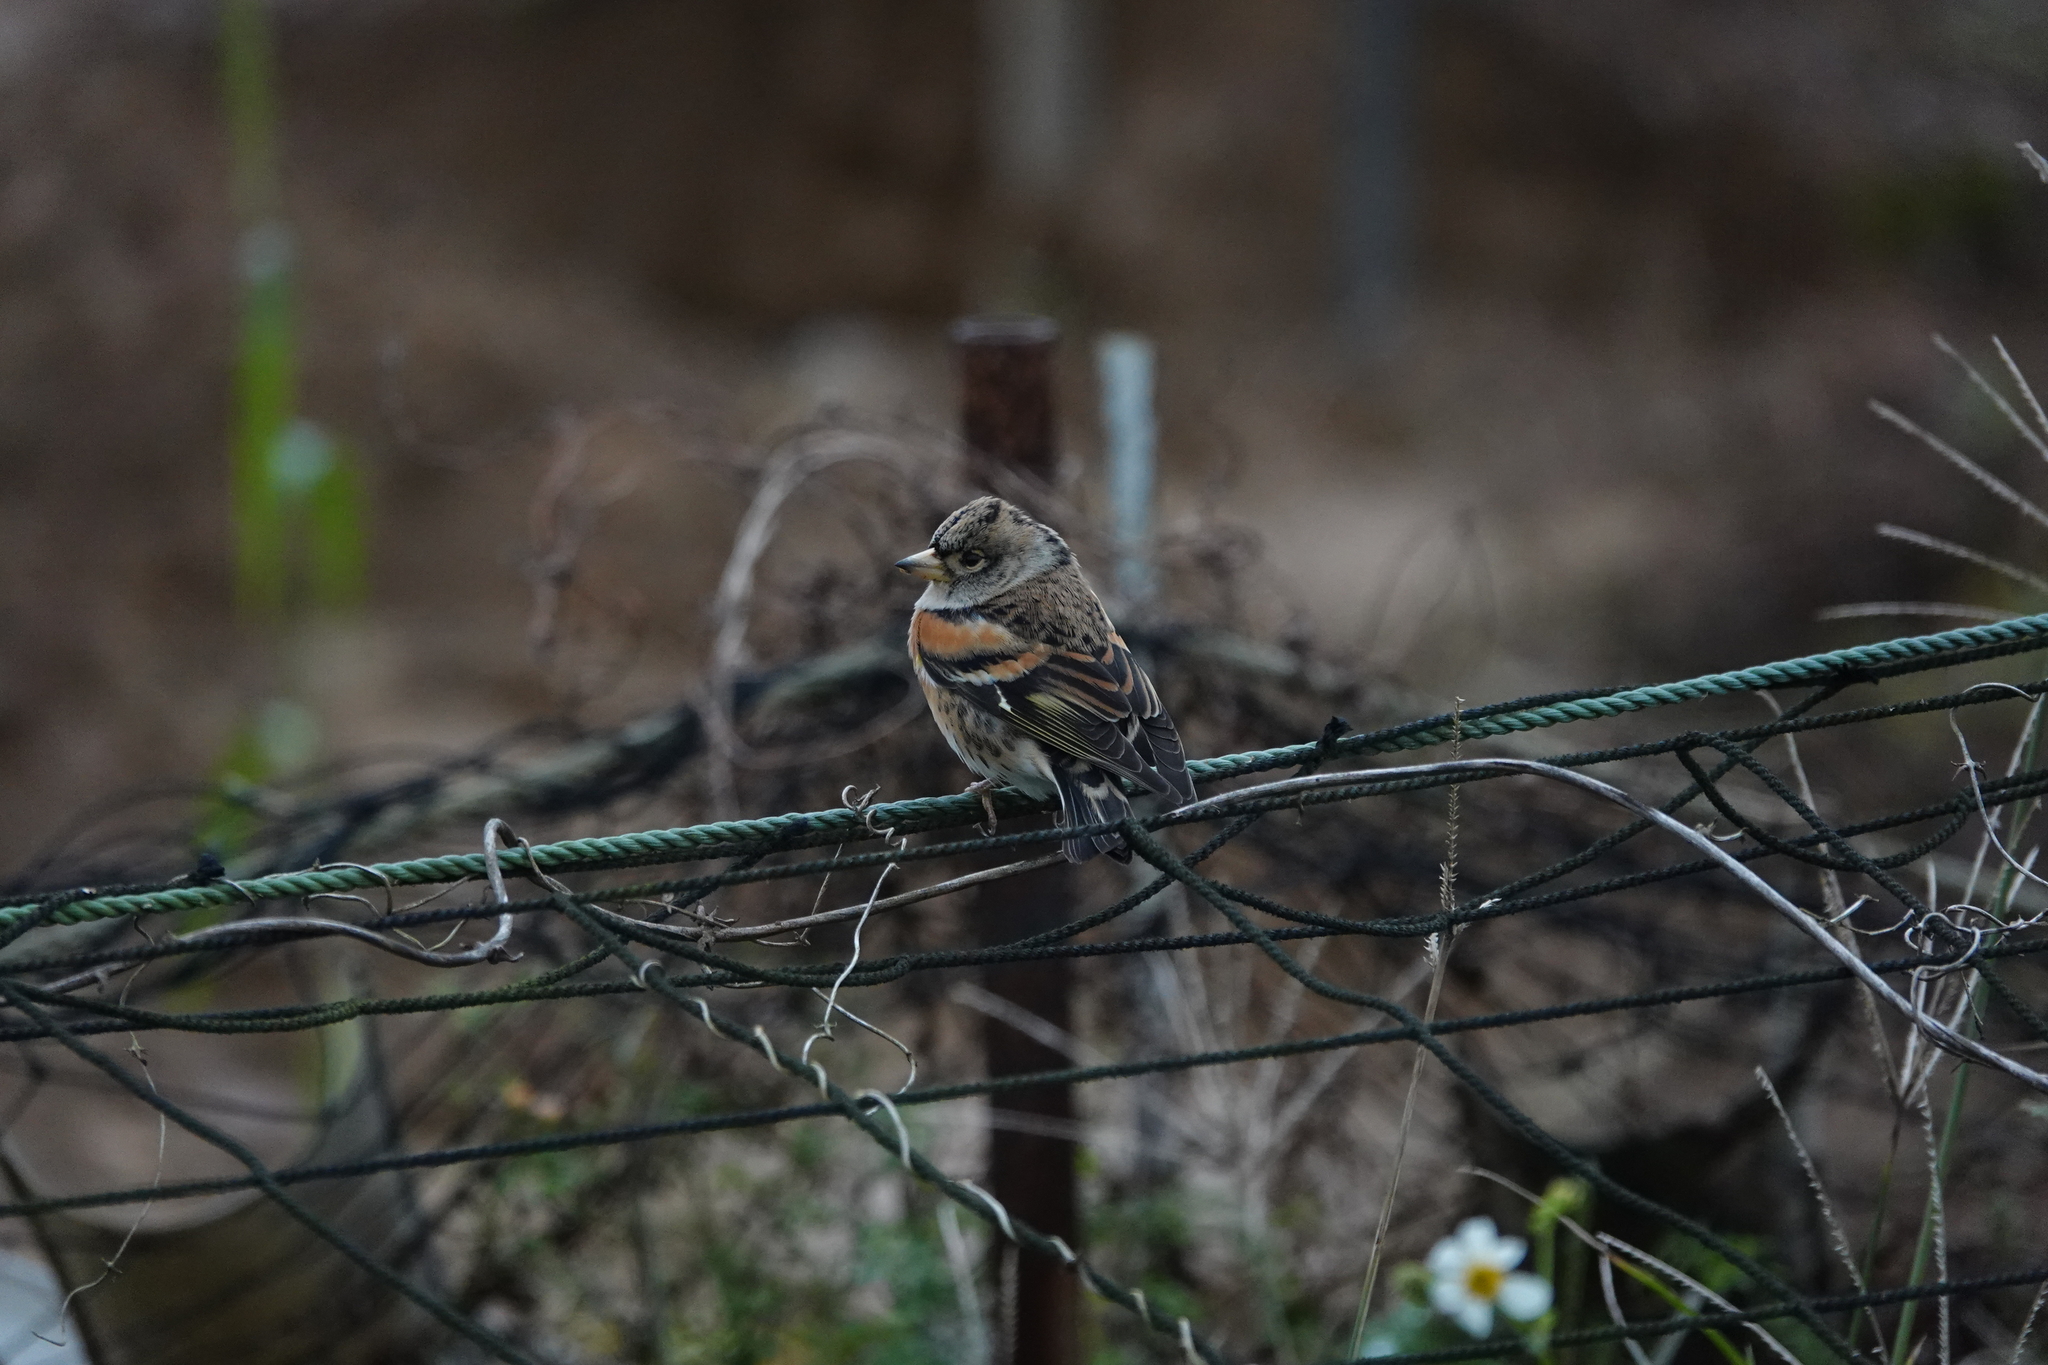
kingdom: Animalia
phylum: Chordata
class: Aves
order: Passeriformes
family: Fringillidae
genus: Fringilla
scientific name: Fringilla montifringilla
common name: Brambling
